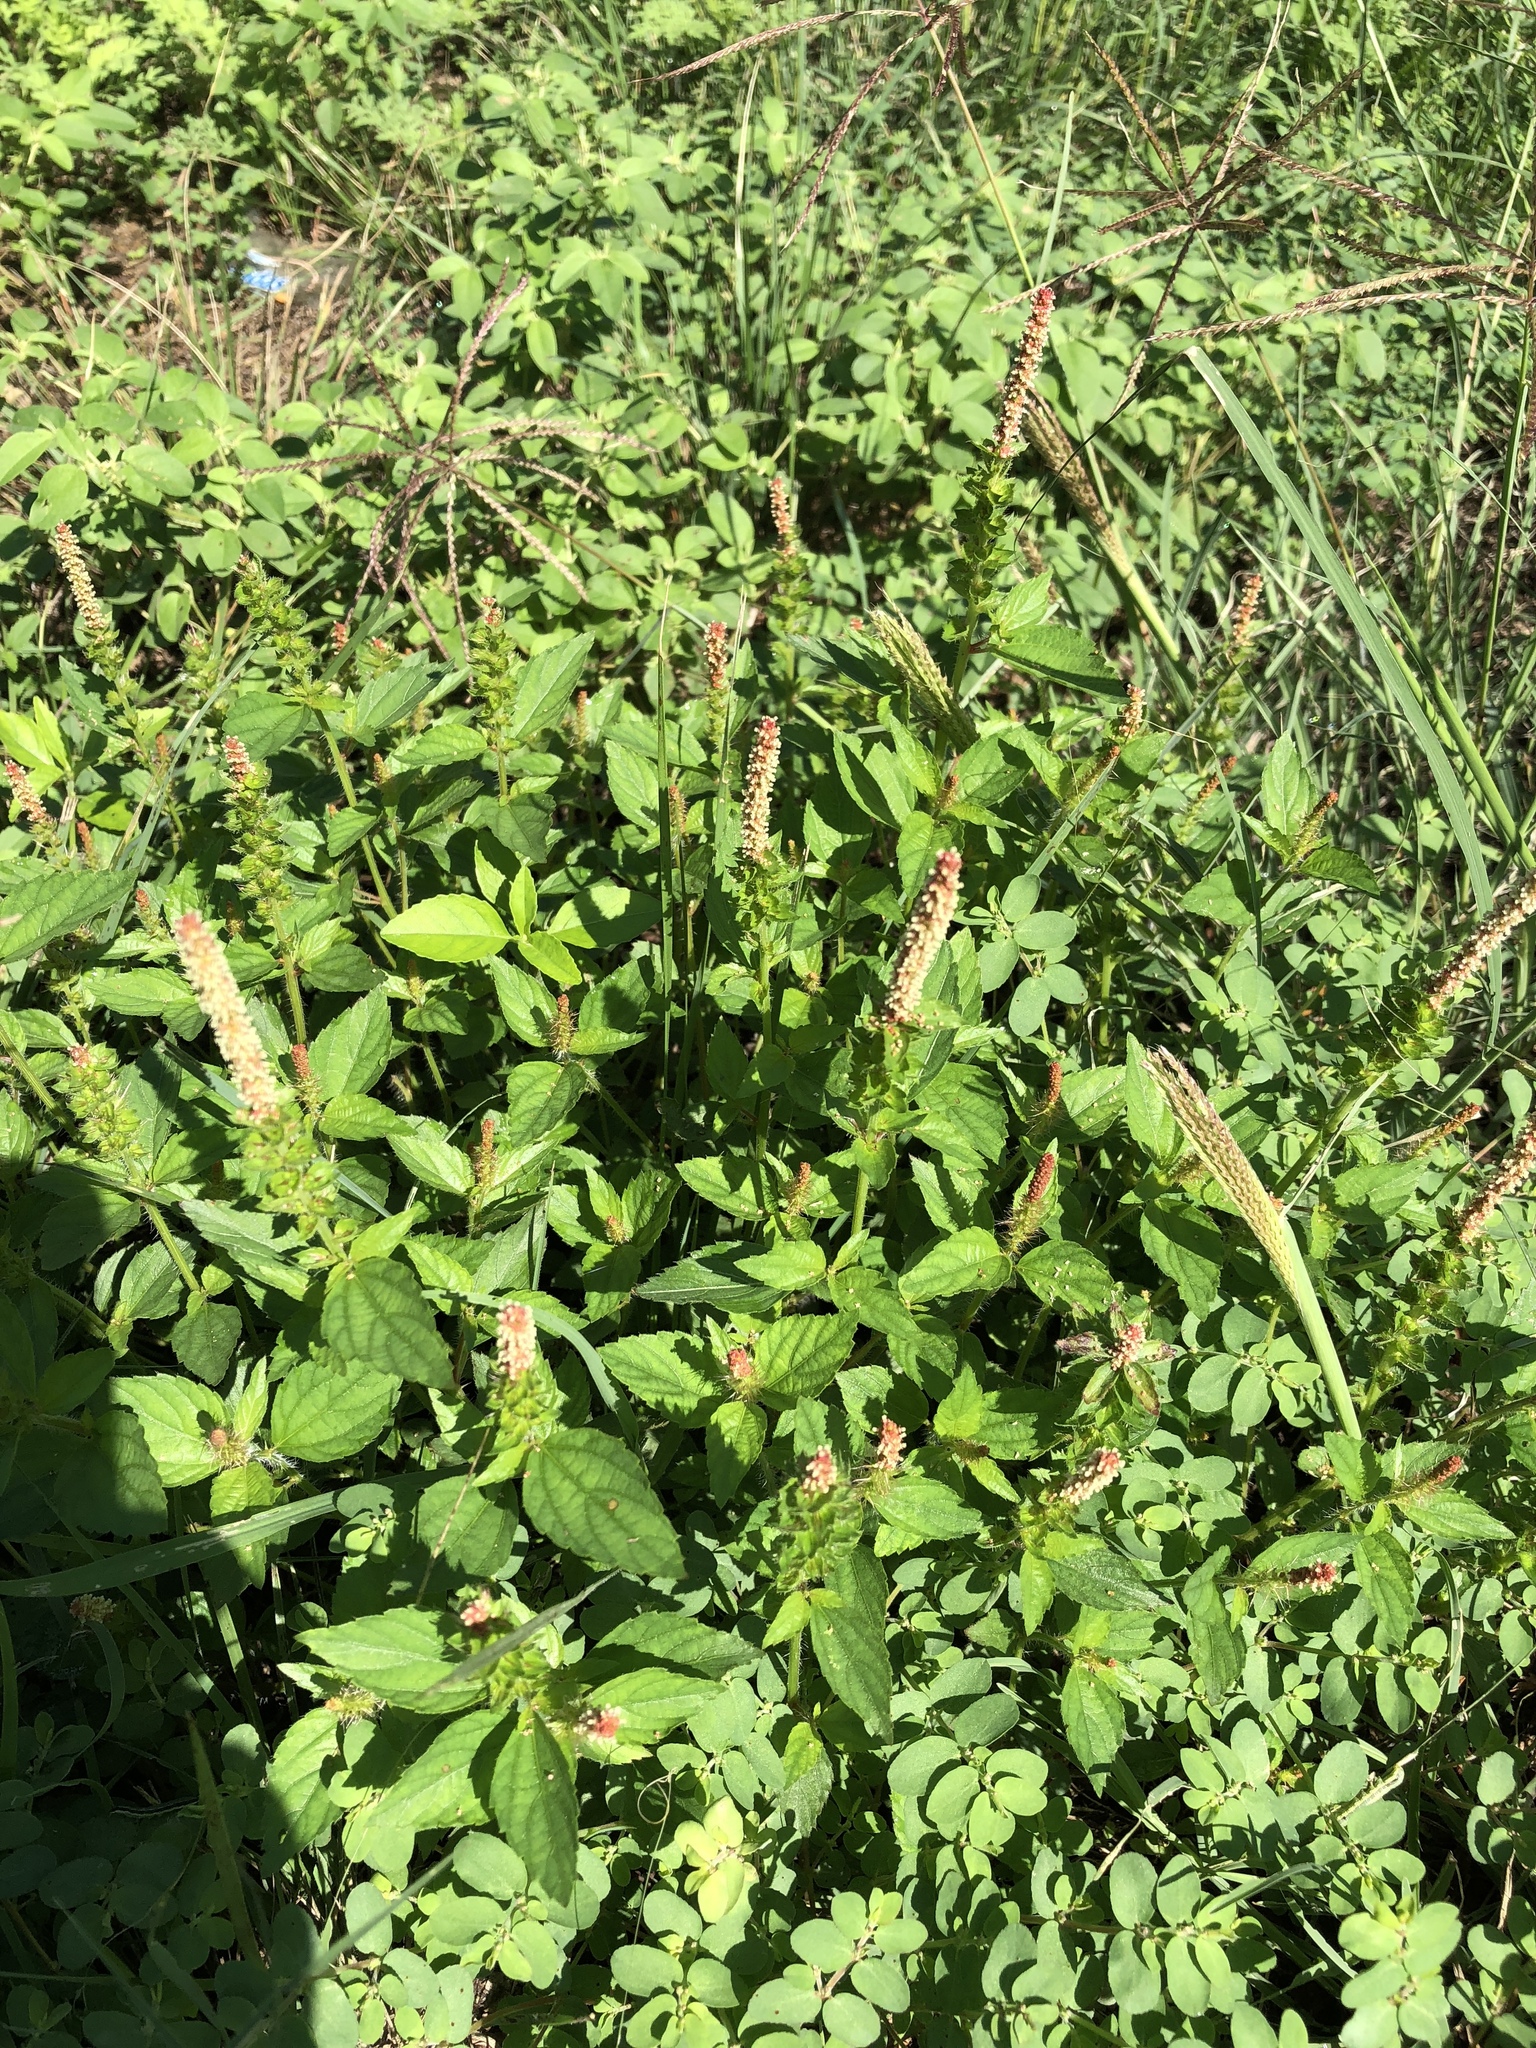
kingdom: Plantae
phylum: Tracheophyta
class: Magnoliopsida
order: Malpighiales
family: Euphorbiaceae
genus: Acalypha
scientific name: Acalypha phleoides
